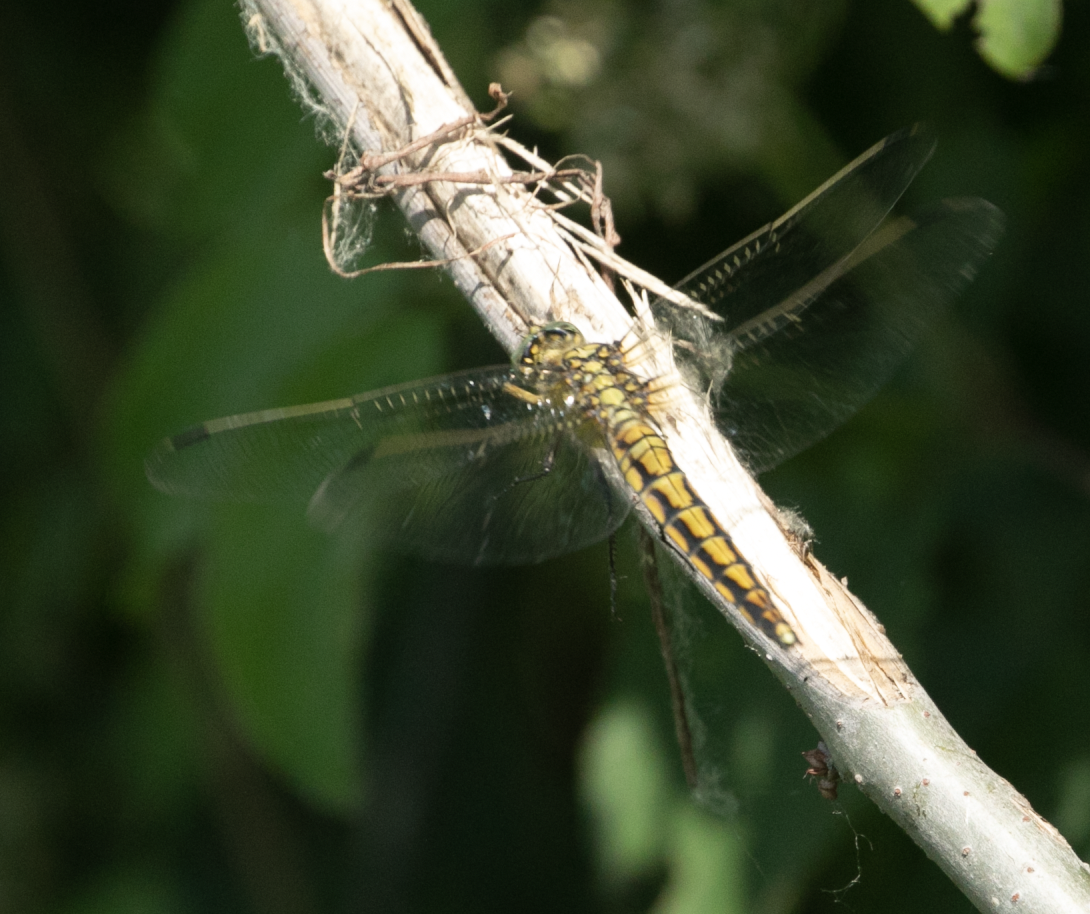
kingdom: Animalia
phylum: Arthropoda
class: Insecta
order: Odonata
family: Libellulidae
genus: Orthetrum
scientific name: Orthetrum cancellatum
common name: Black-tailed skimmer
